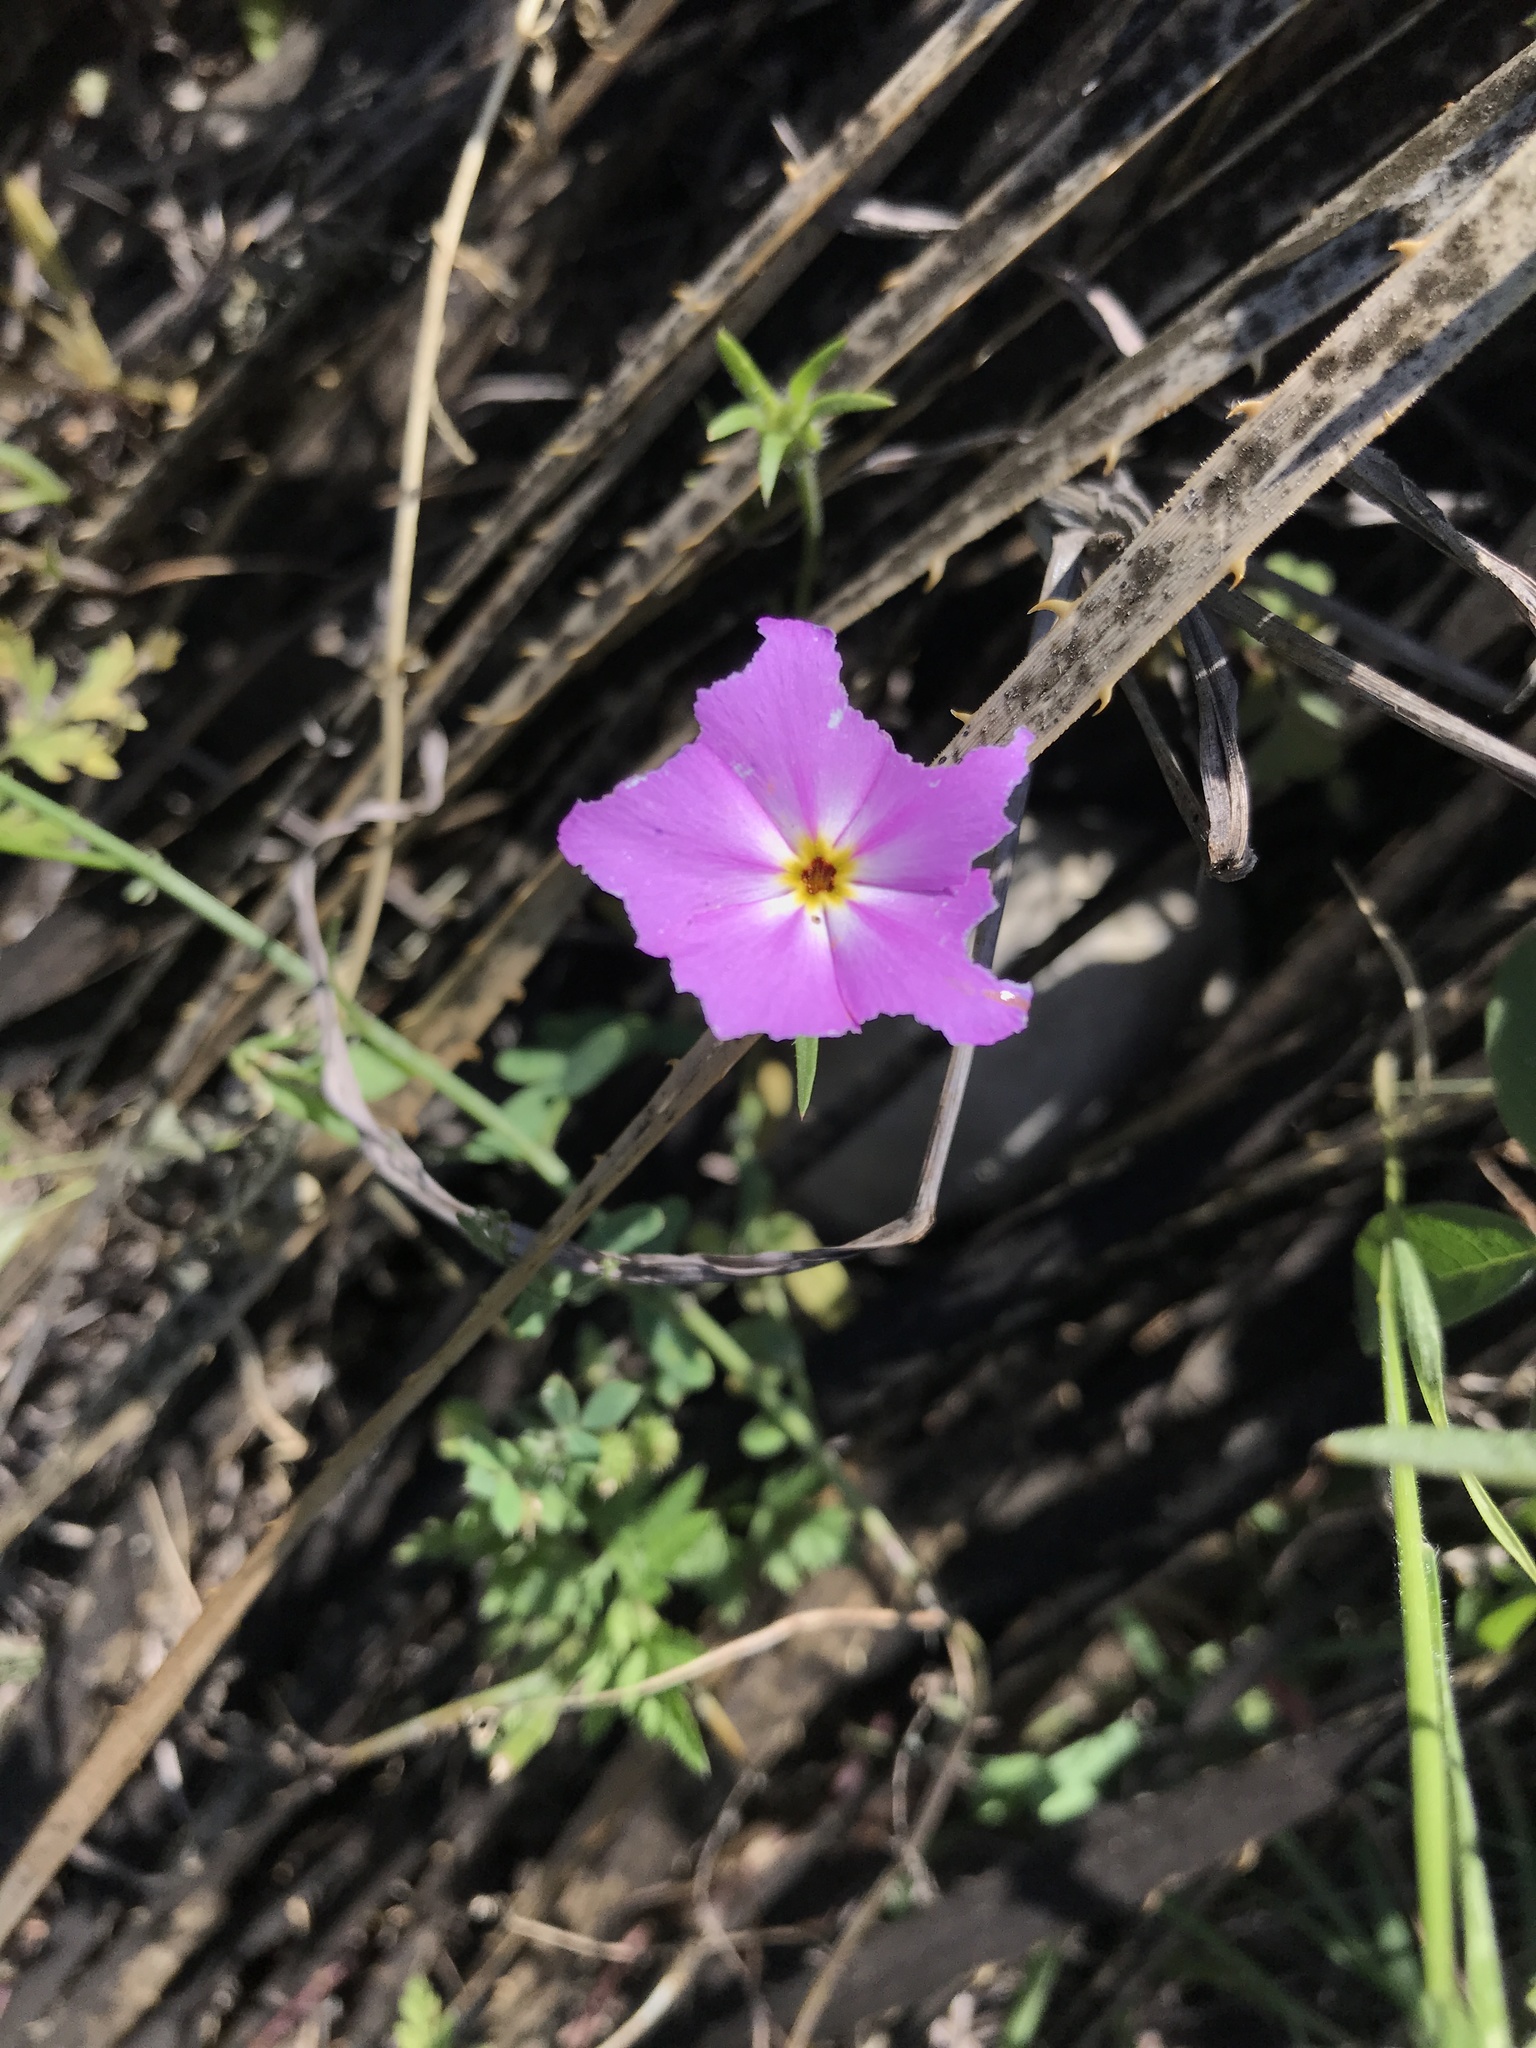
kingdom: Plantae
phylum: Tracheophyta
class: Magnoliopsida
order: Ericales
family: Polemoniaceae
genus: Phlox
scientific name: Phlox roemeriana
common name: Roemer's phlox
